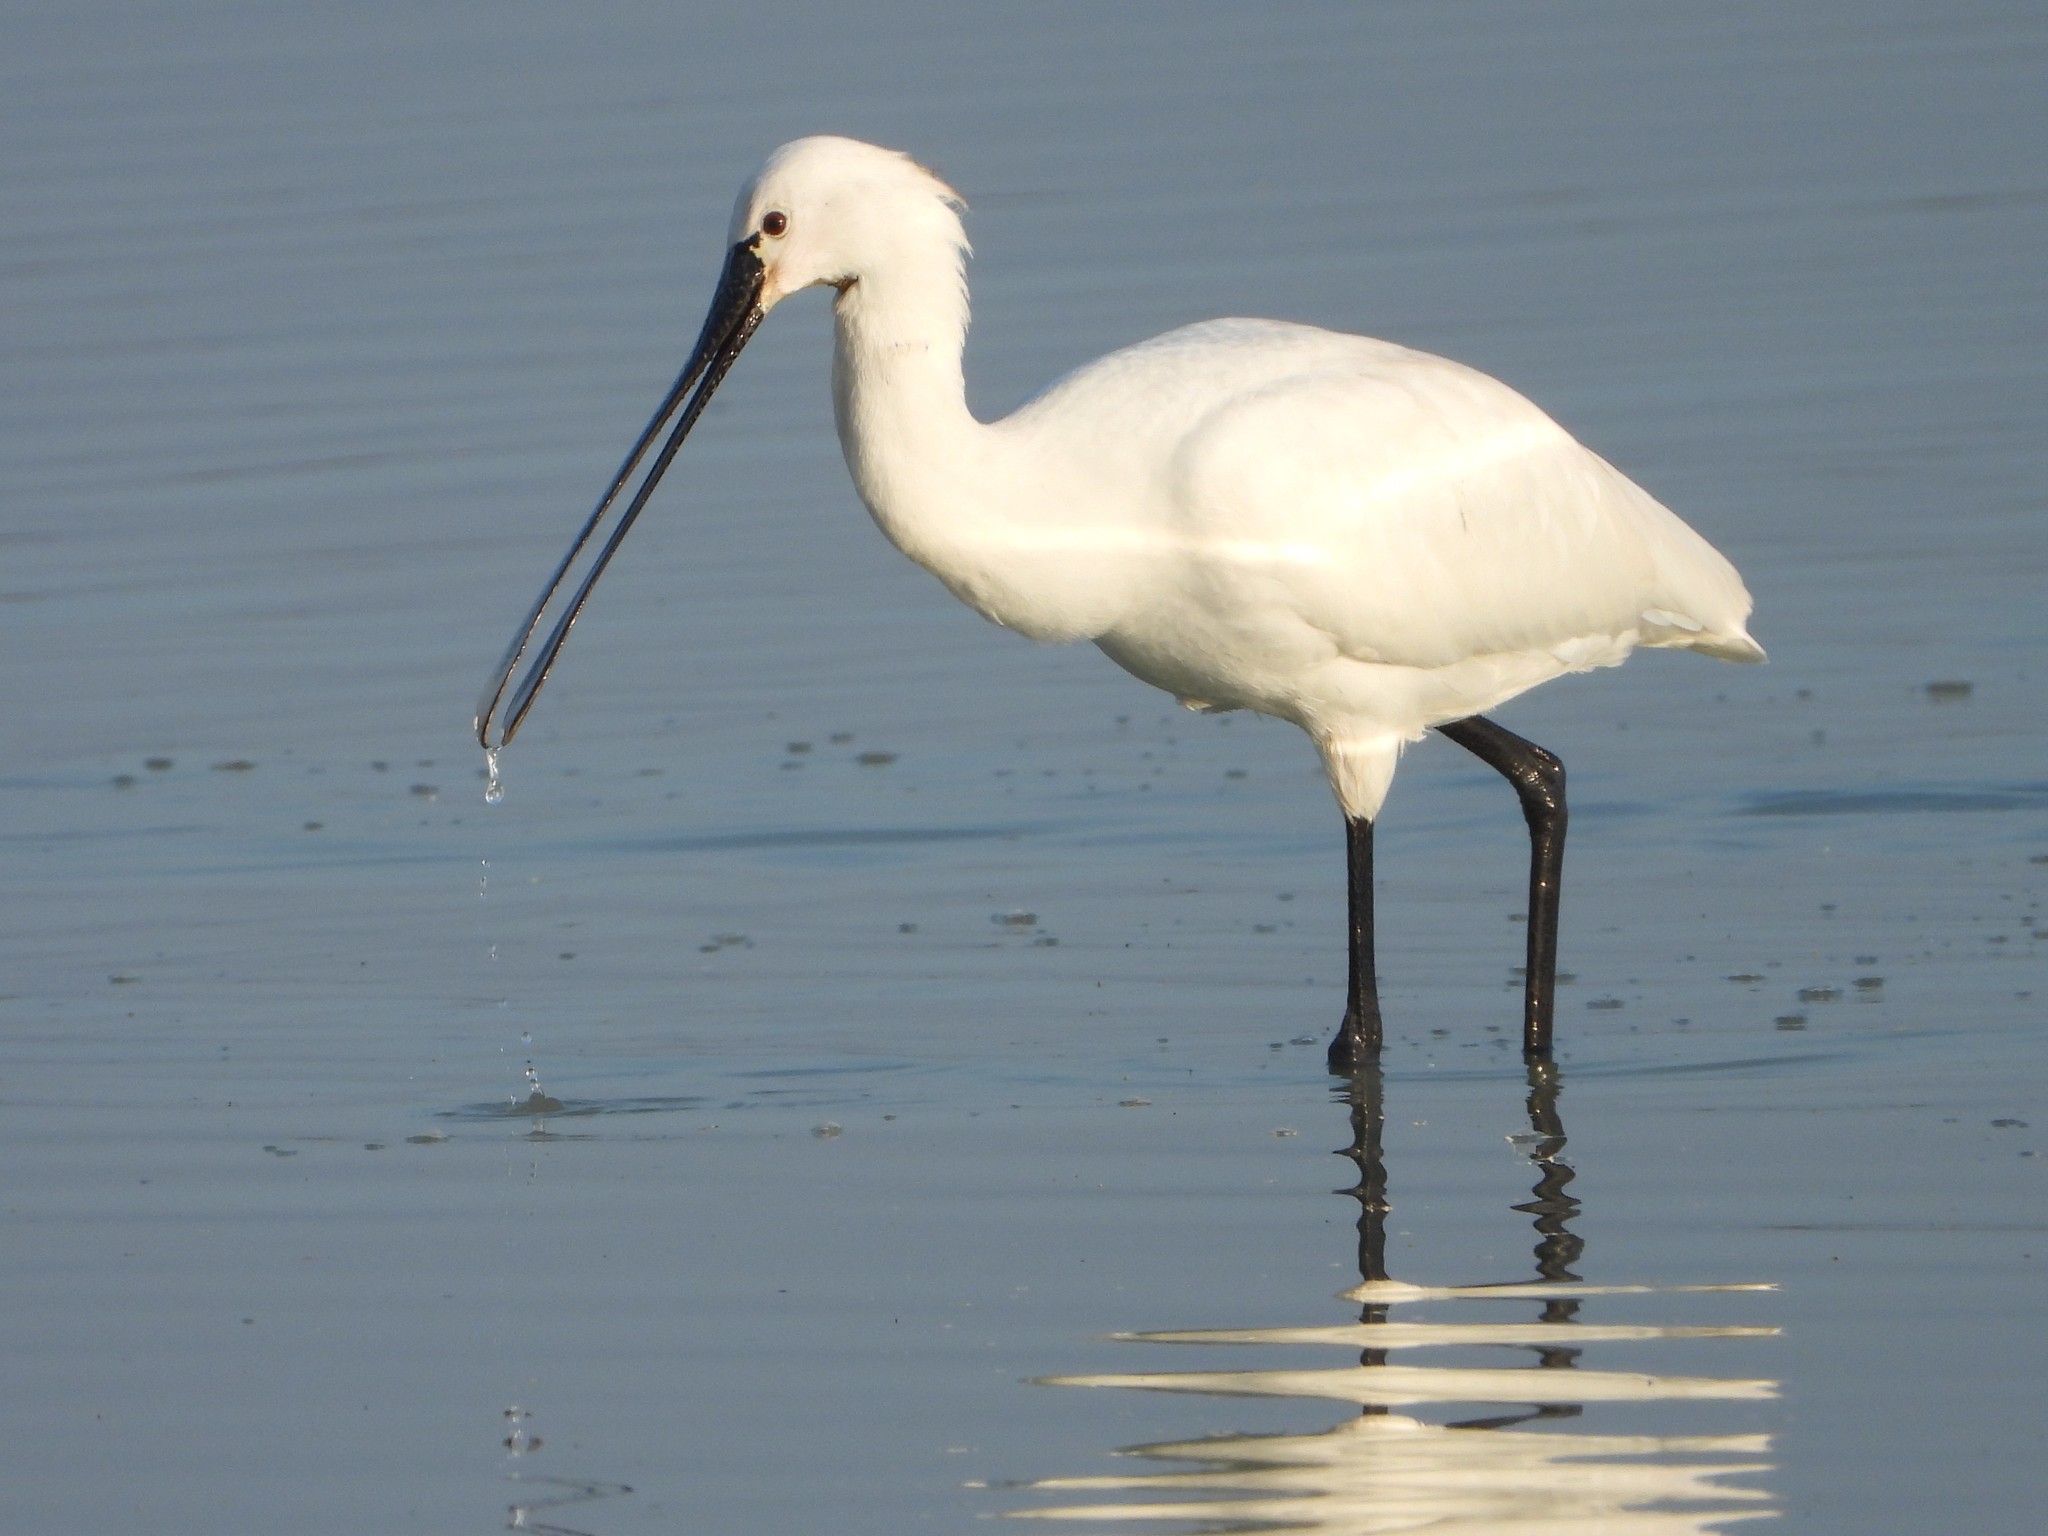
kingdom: Animalia
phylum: Chordata
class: Aves
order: Pelecaniformes
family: Threskiornithidae
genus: Platalea
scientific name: Platalea leucorodia
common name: Eurasian spoonbill
